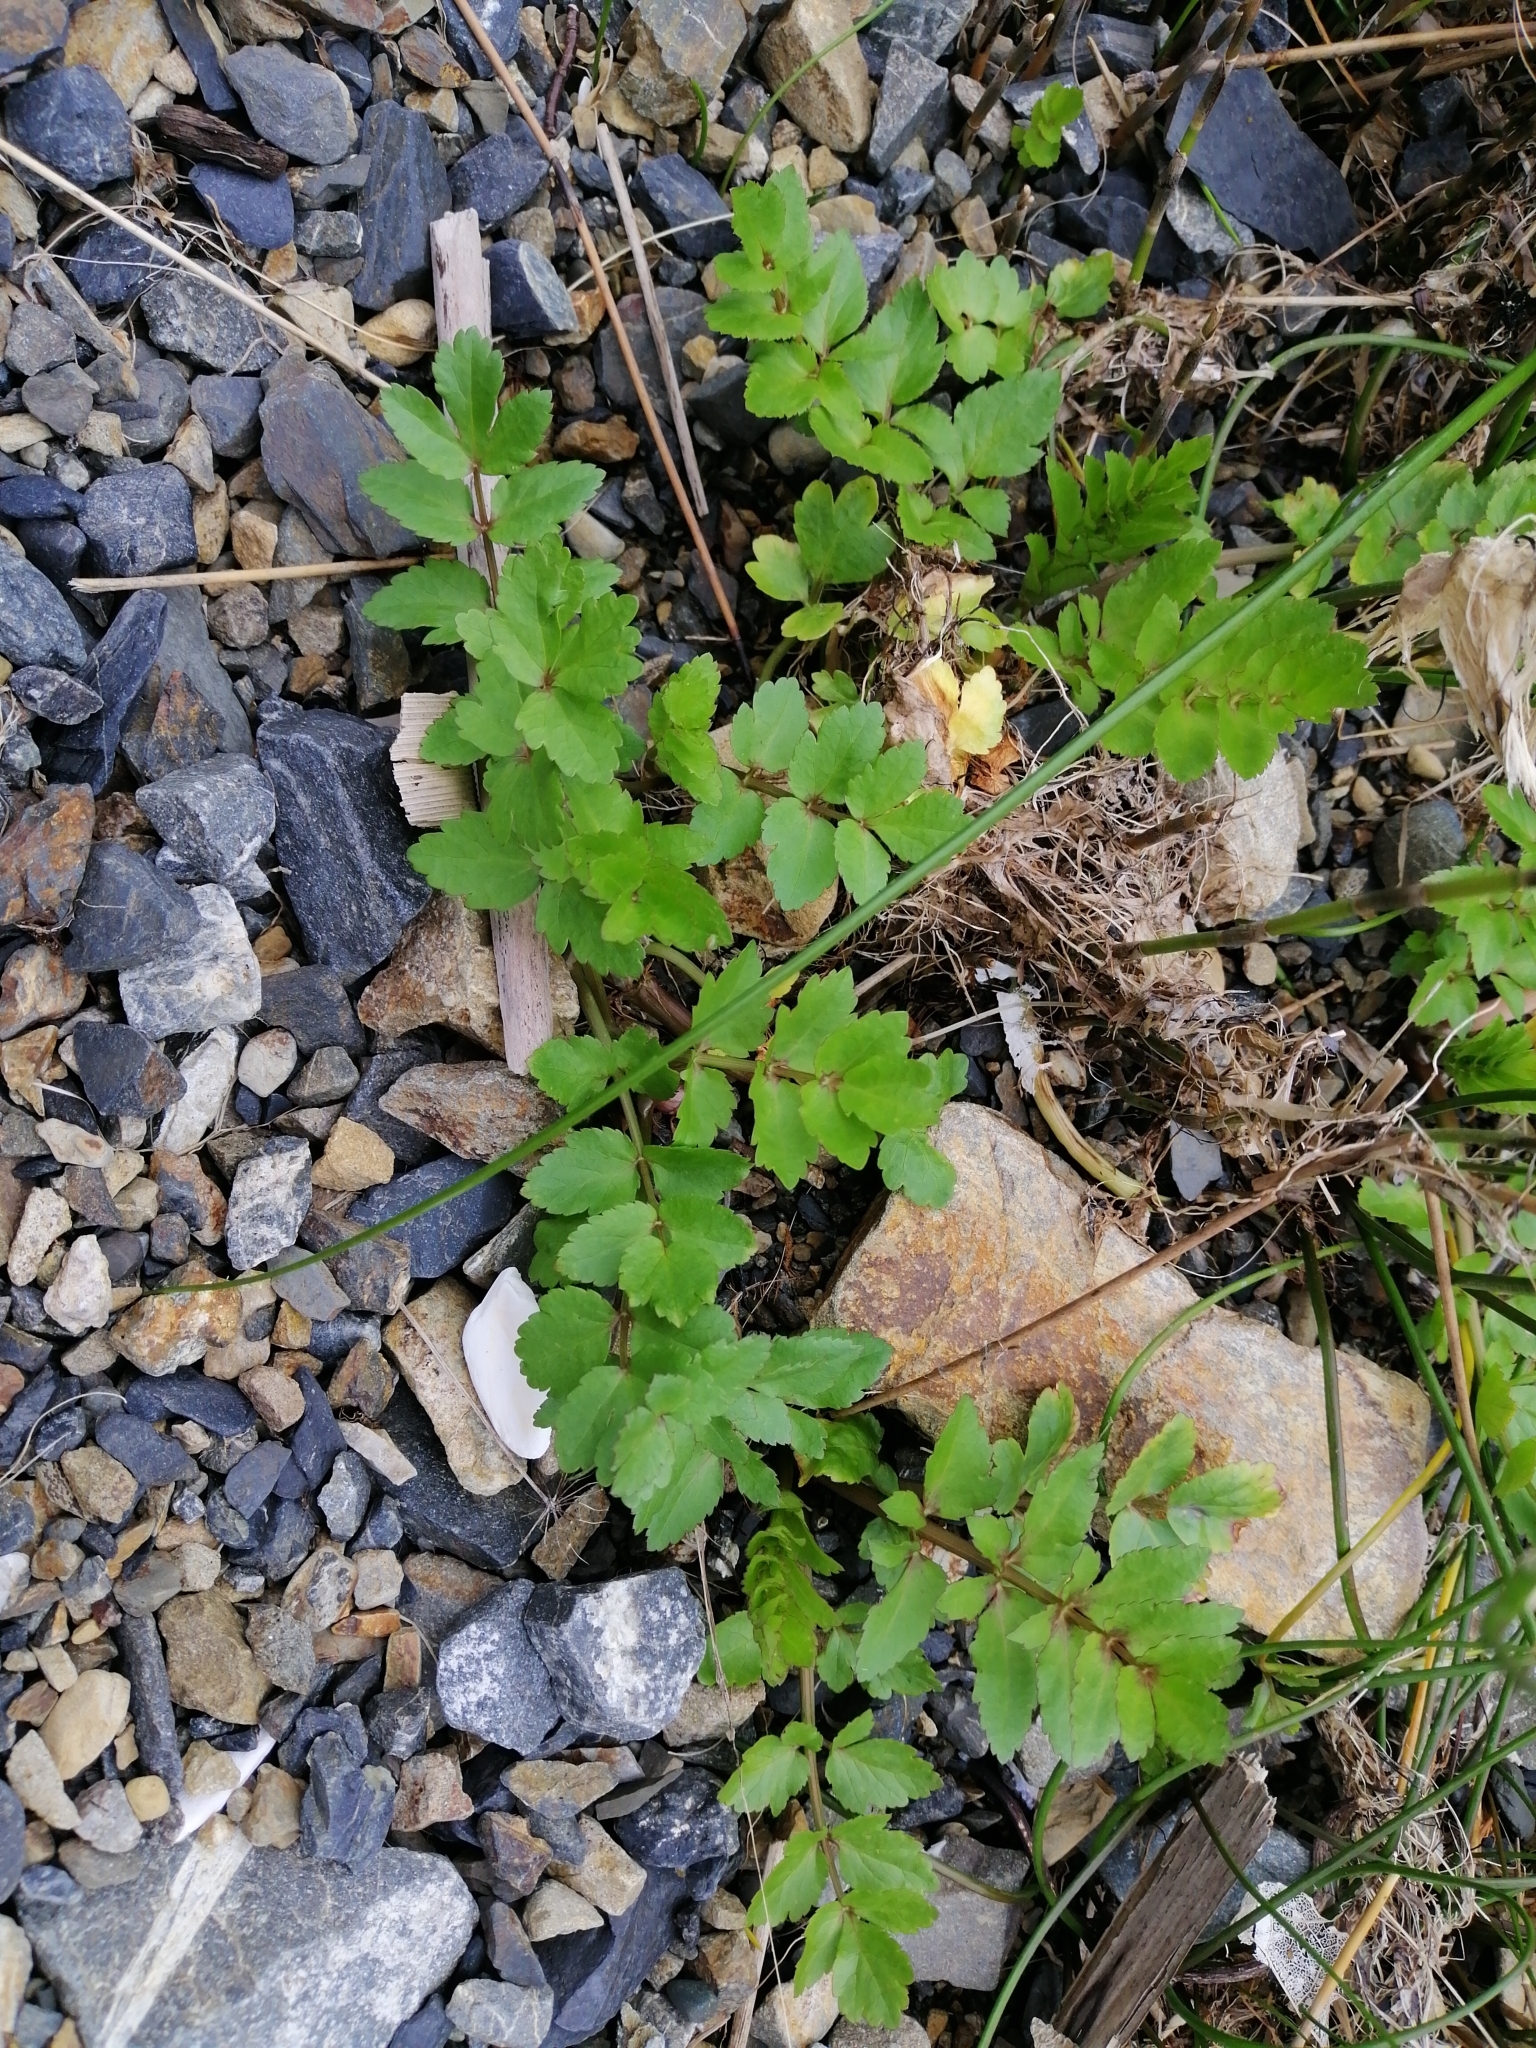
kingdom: Plantae
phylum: Tracheophyta
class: Magnoliopsida
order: Apiales
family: Apiaceae
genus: Helosciadium
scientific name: Helosciadium nodiflorum
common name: Fool's-watercress
